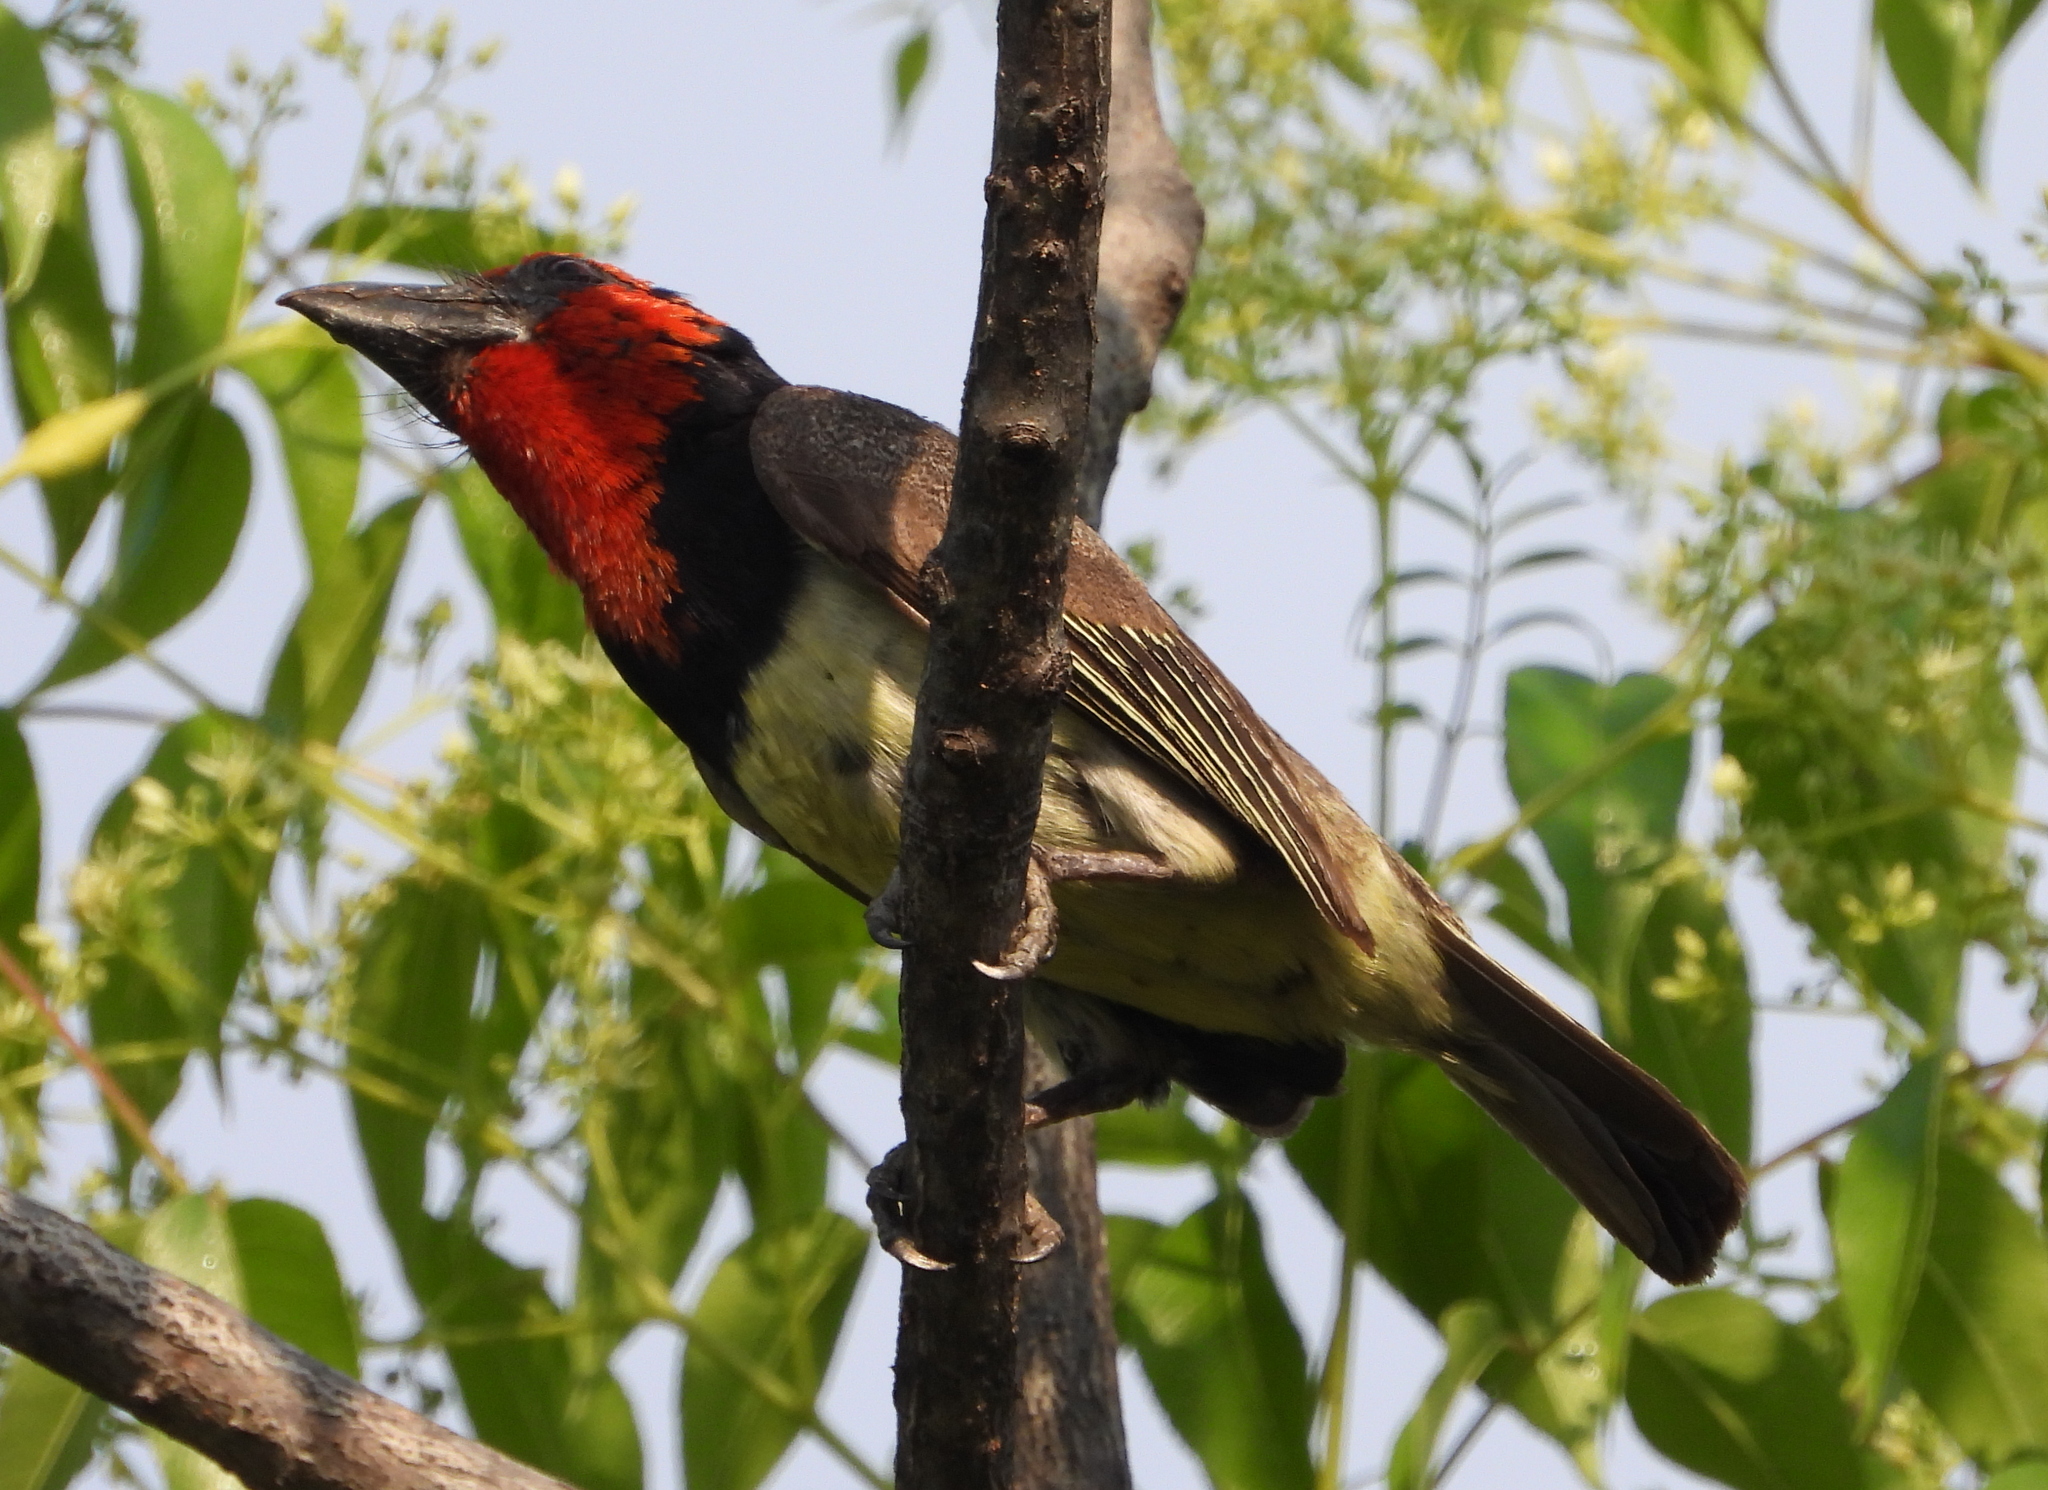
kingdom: Animalia
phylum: Chordata
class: Aves
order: Piciformes
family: Lybiidae
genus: Lybius
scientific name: Lybius torquatus
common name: Black-collared barbet
